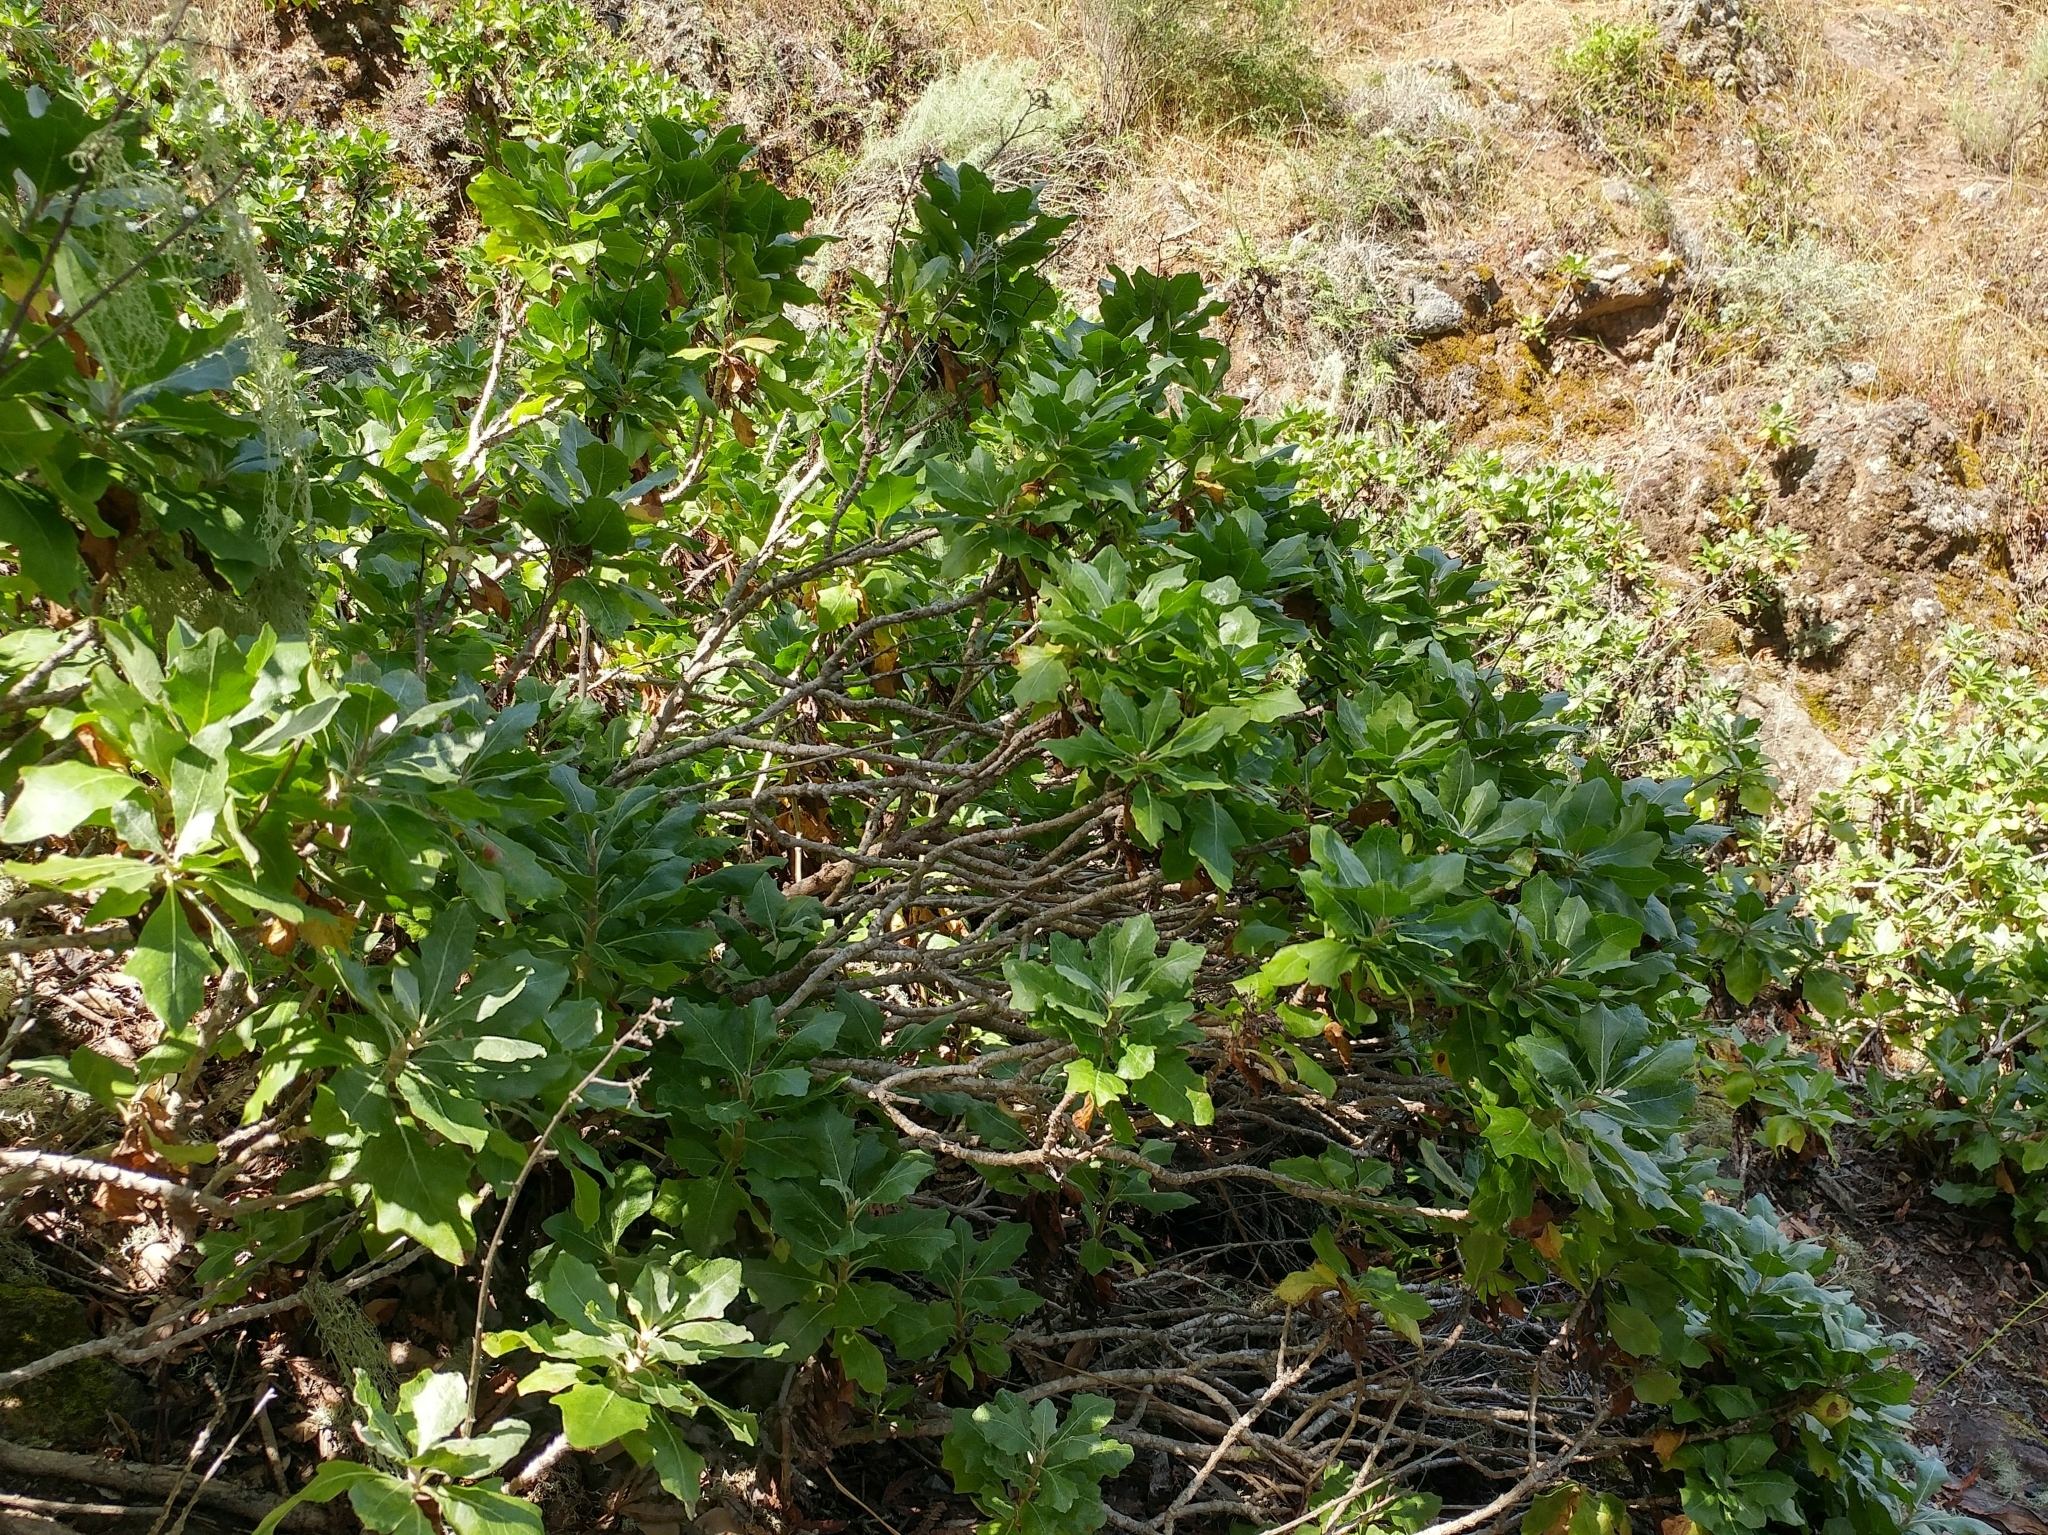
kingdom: Plantae
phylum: Tracheophyta
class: Magnoliopsida
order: Asterales
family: Asteraceae
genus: Munzothamnus
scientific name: Munzothamnus blairii
